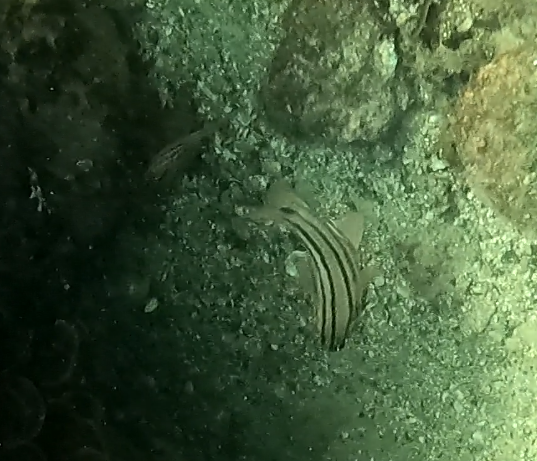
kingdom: Animalia
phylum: Chordata
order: Perciformes
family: Apogonidae
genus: Ostorhinchus
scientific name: Ostorhinchus limenus
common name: Four-banded soldierfish
